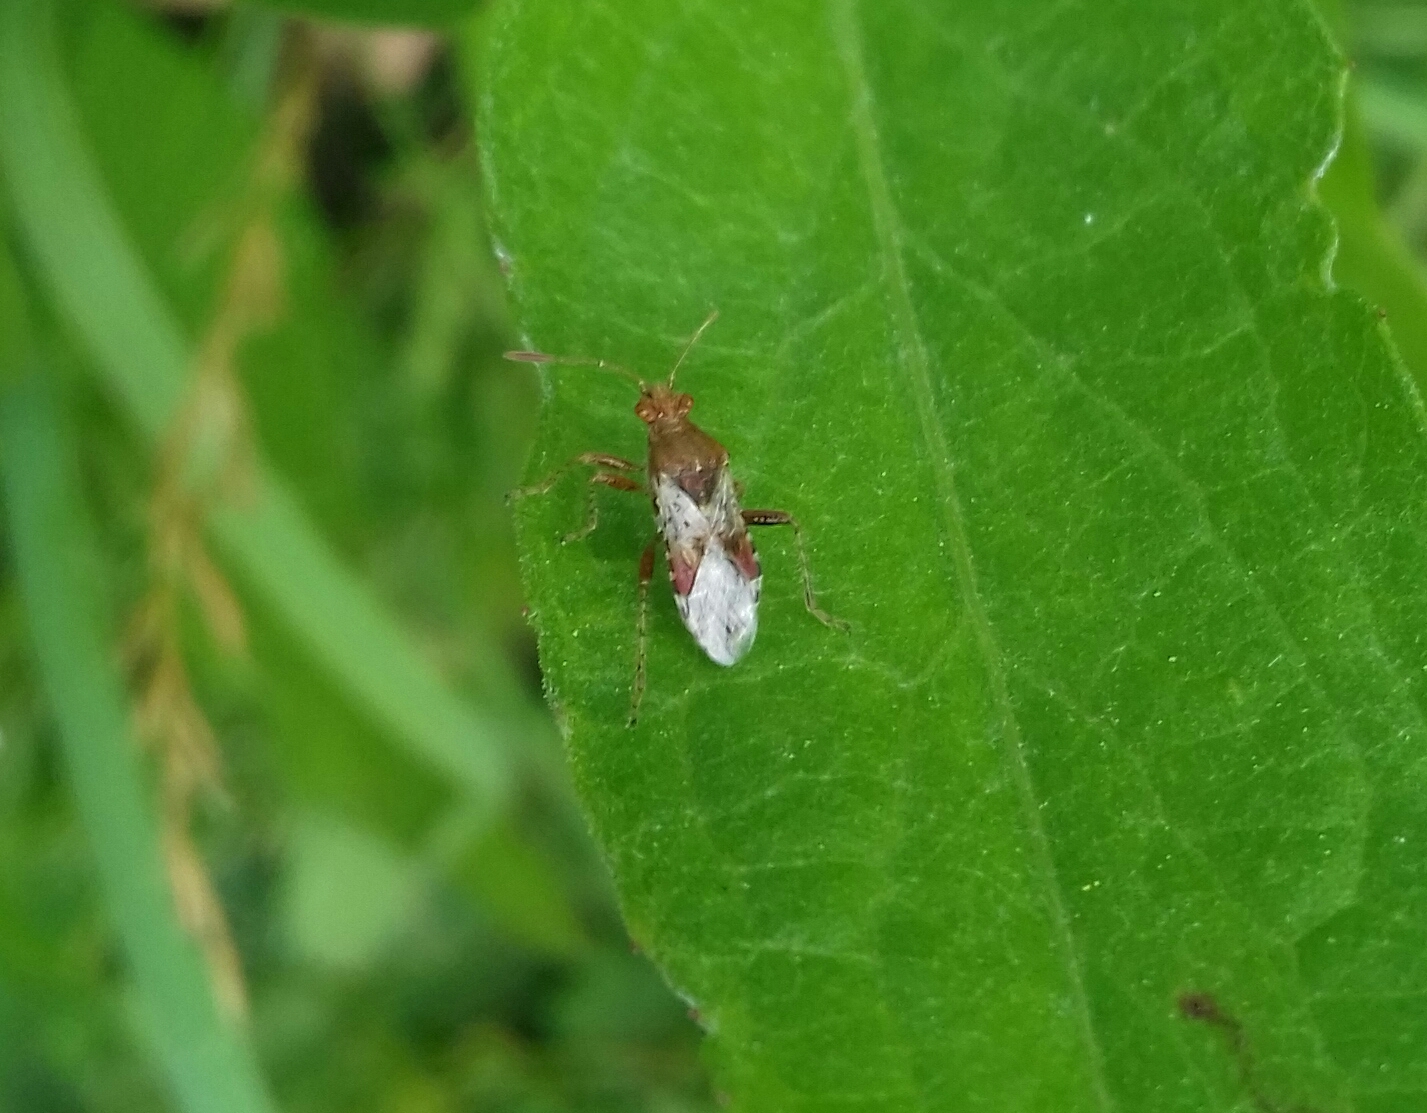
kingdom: Animalia
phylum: Arthropoda
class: Insecta
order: Hemiptera
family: Rhopalidae
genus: Rhopalus
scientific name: Rhopalus subrufus
